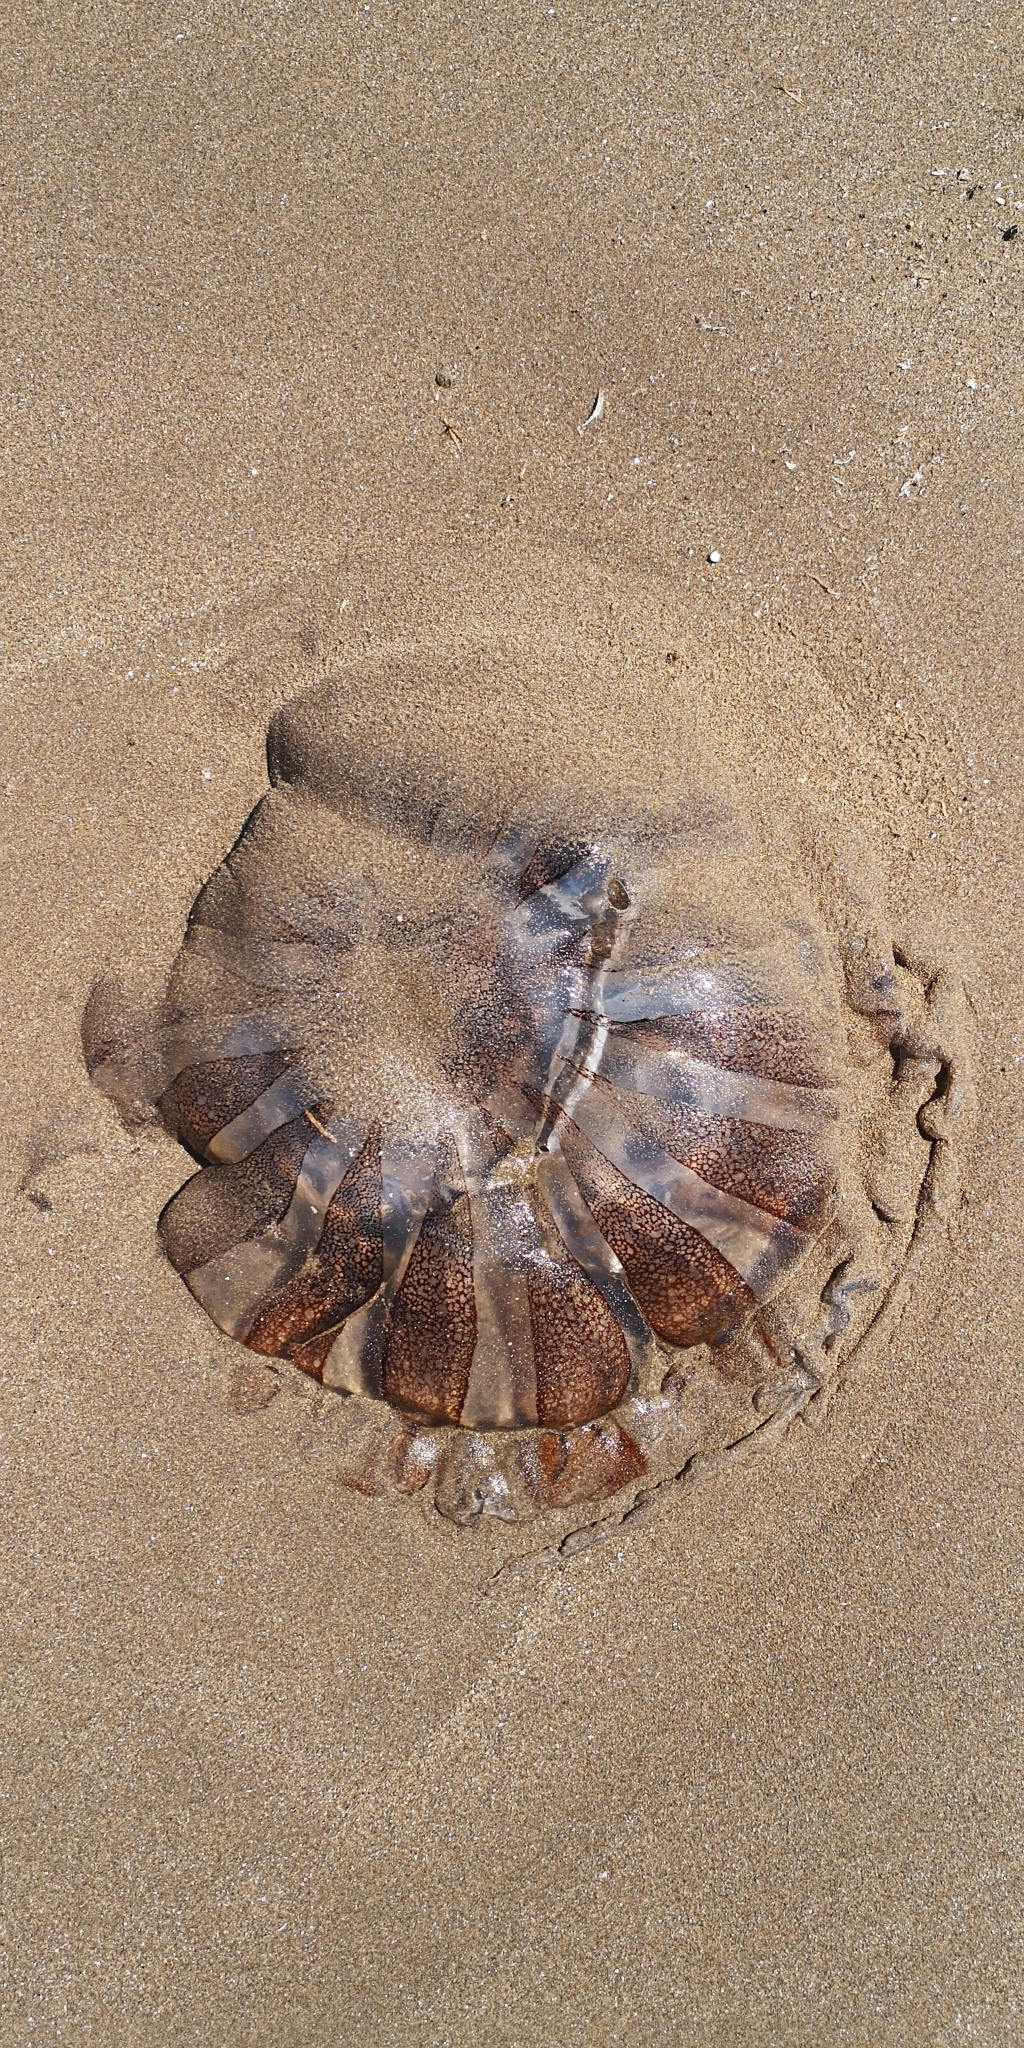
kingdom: Animalia
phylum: Cnidaria
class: Scyphozoa
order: Semaeostomeae
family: Pelagiidae
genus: Chrysaora
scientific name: Chrysaora plocamia
